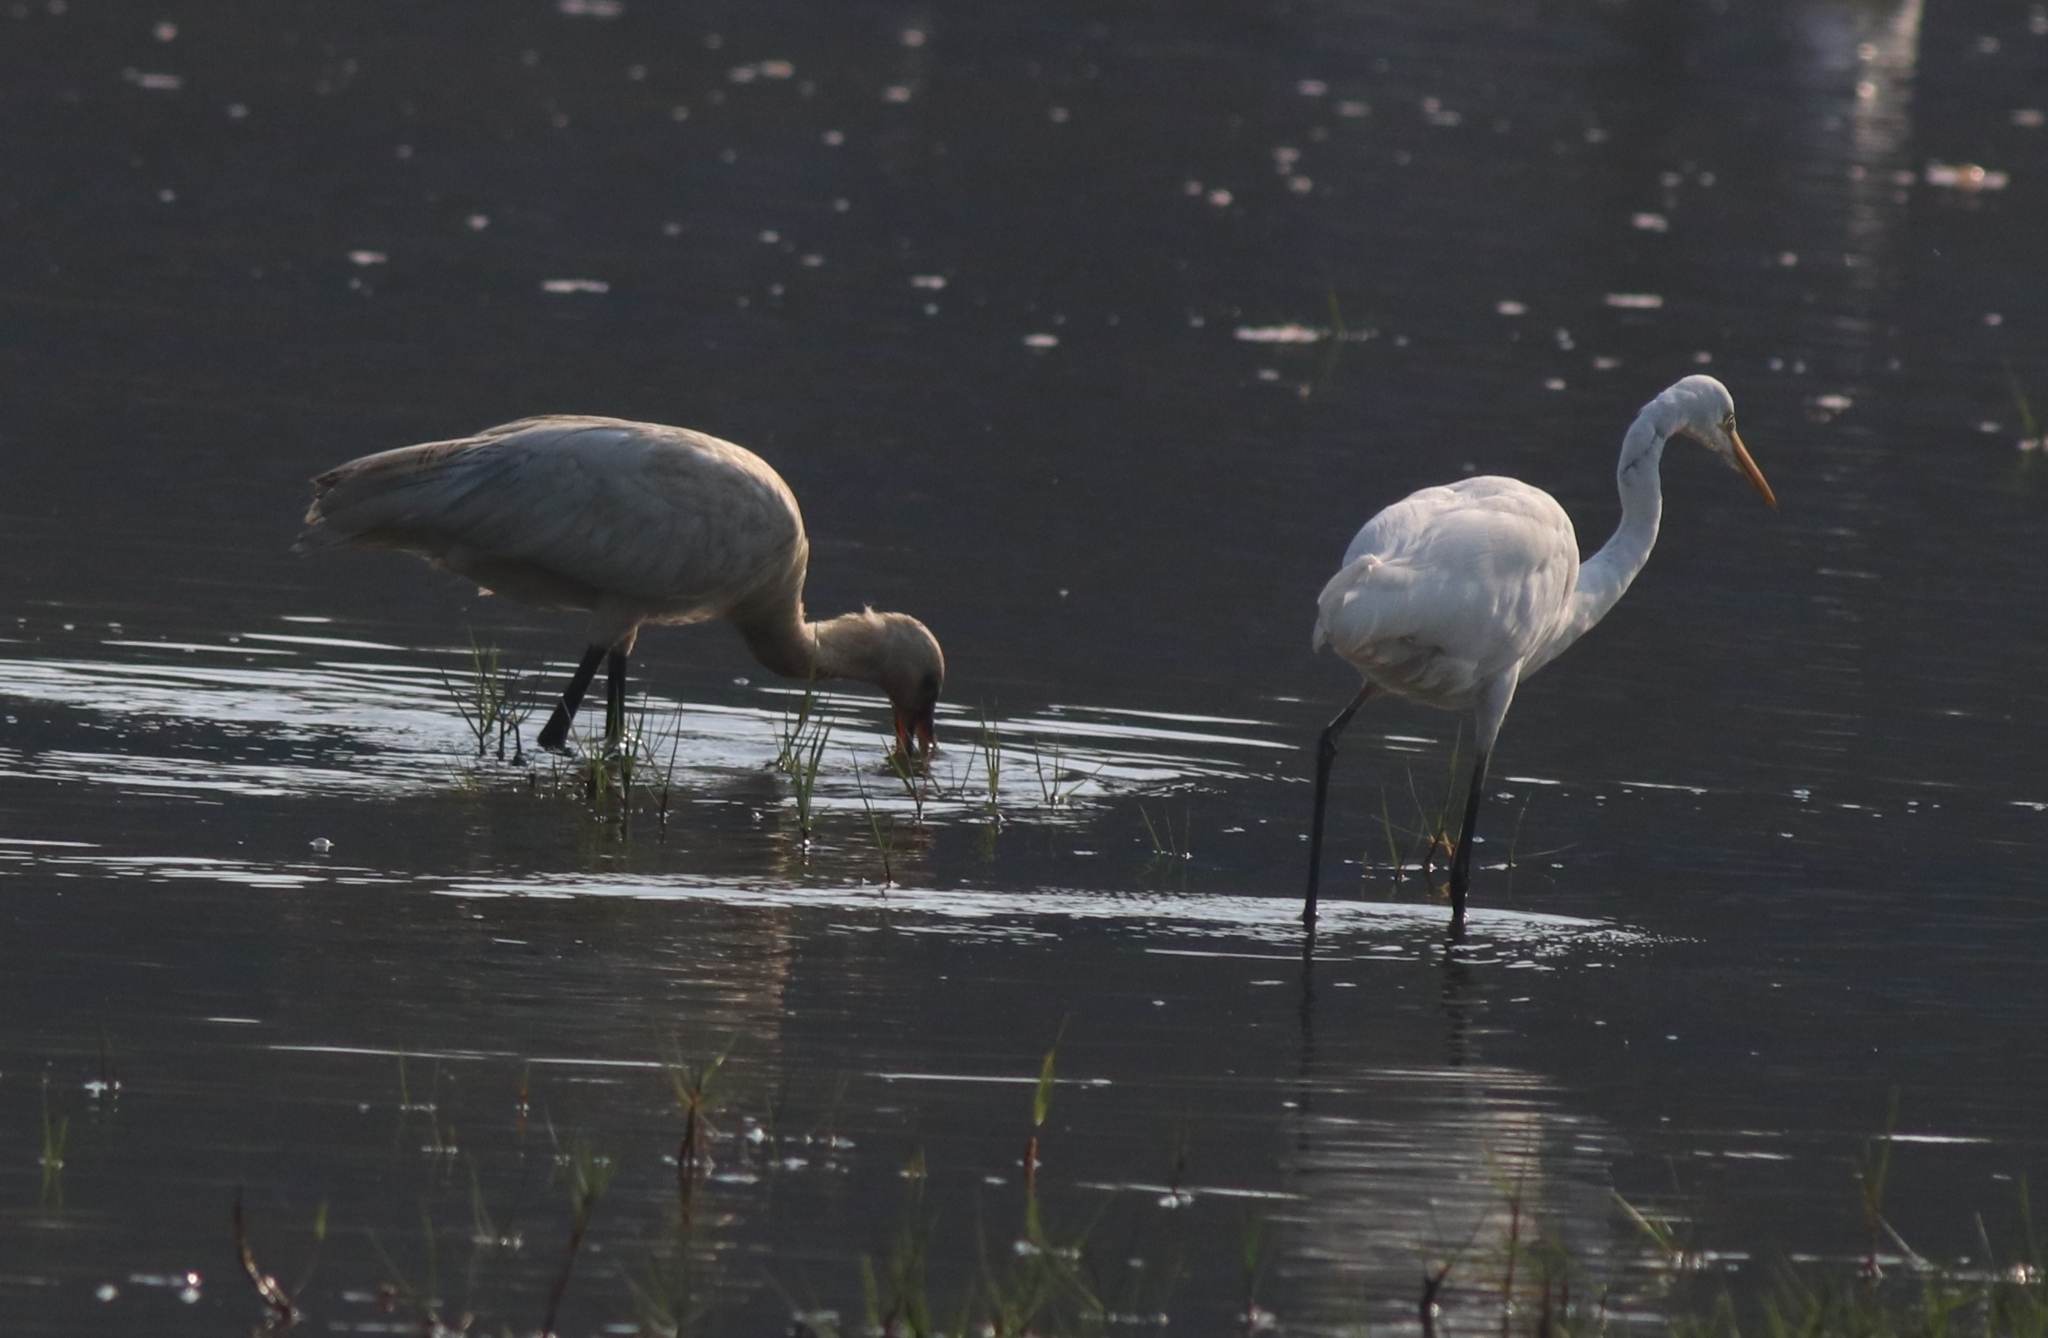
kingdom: Animalia
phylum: Chordata
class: Aves
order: Pelecaniformes
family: Threskiornithidae
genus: Platalea
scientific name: Platalea leucorodia
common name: Eurasian spoonbill
